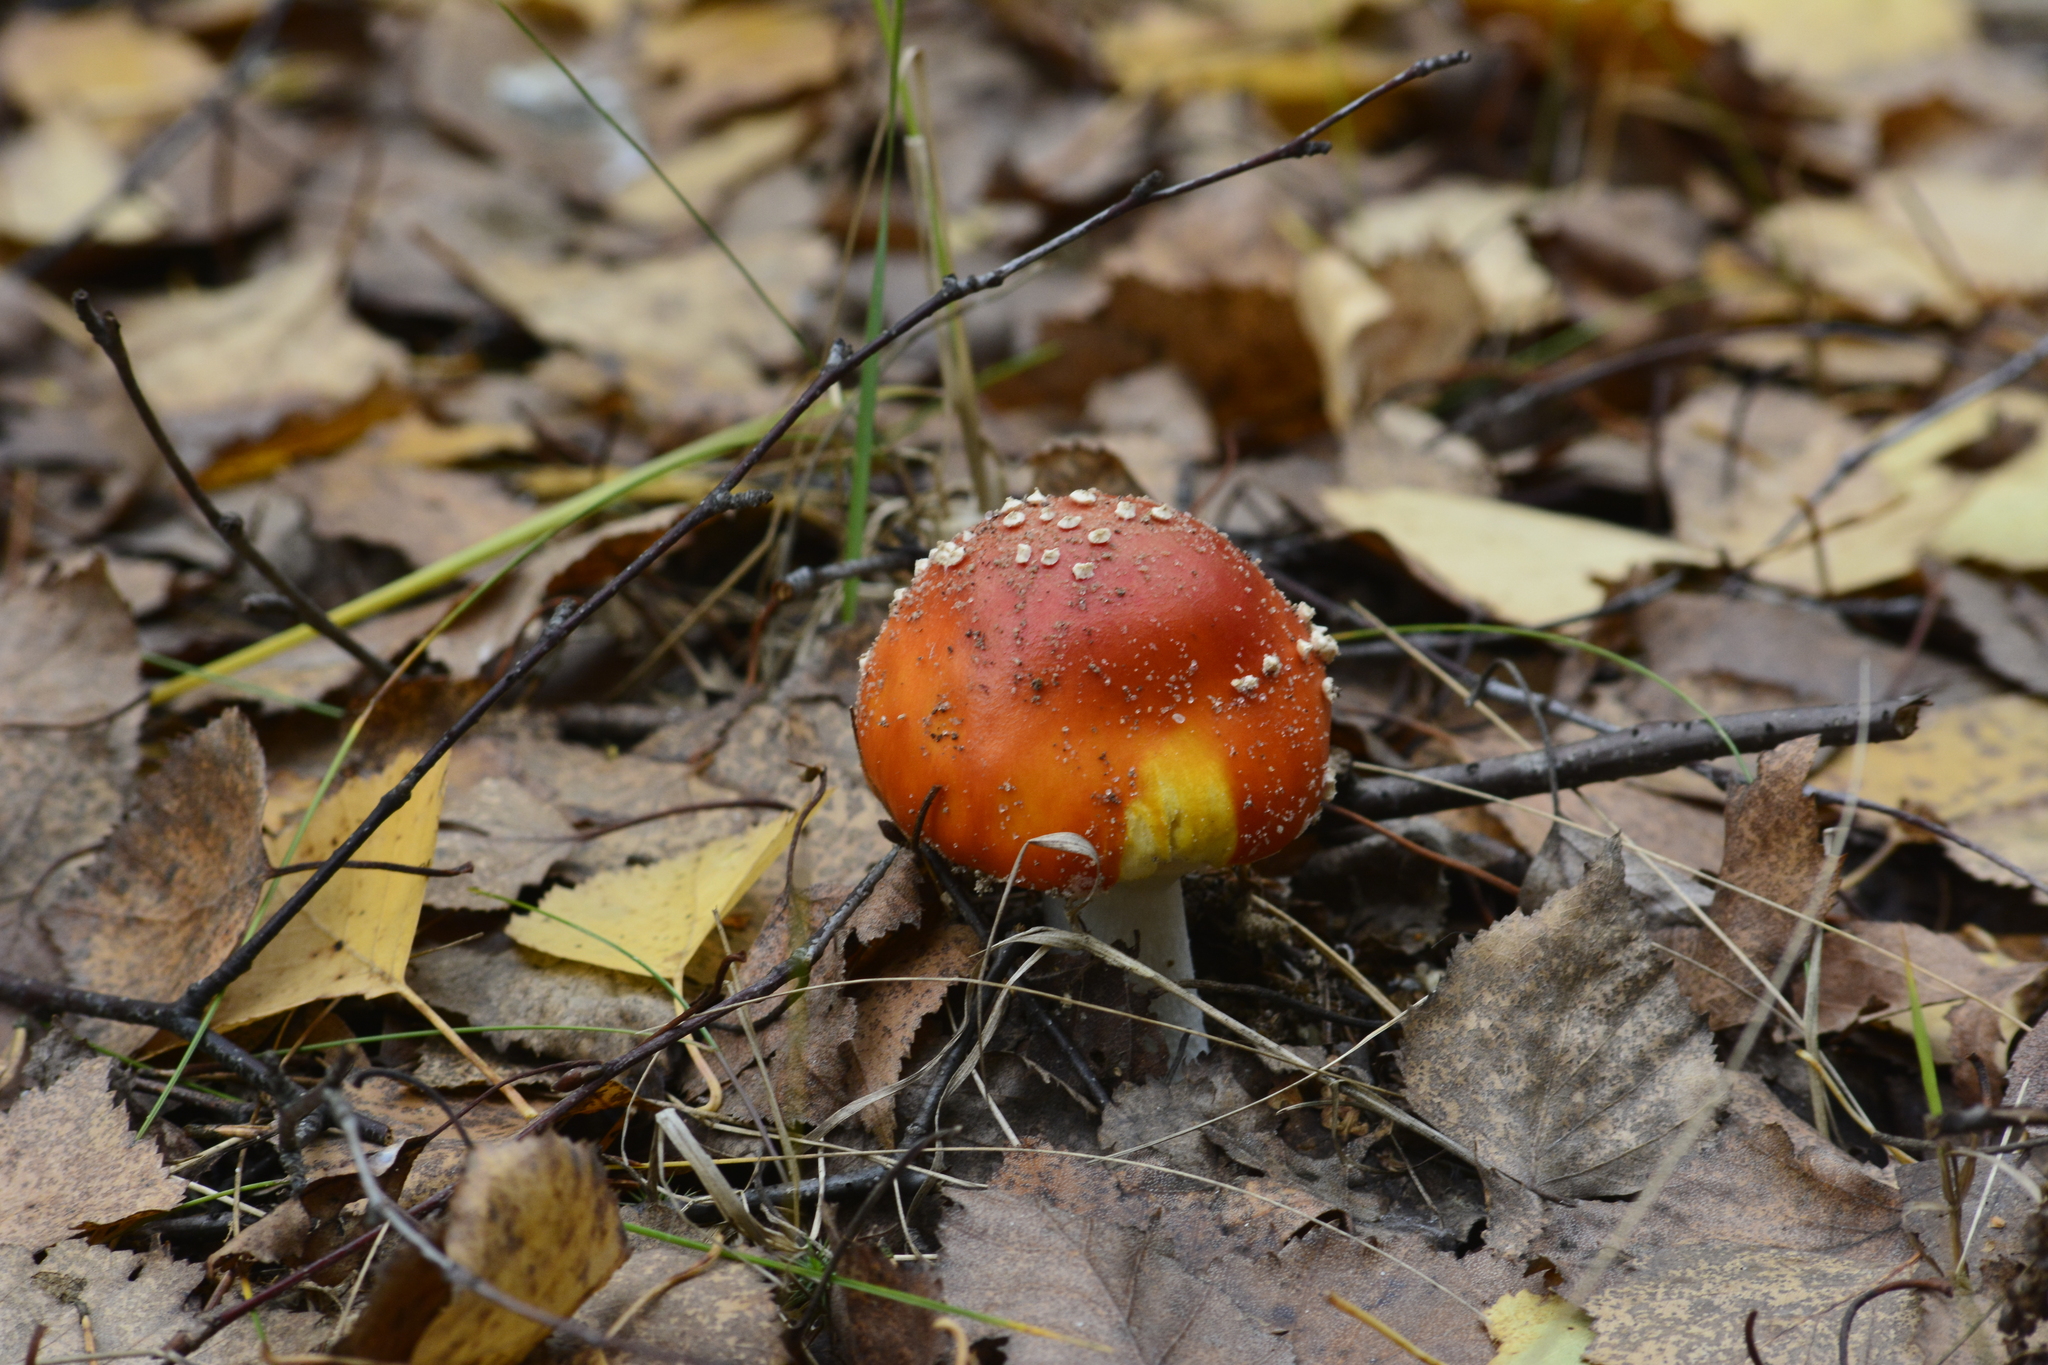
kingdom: Fungi
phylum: Basidiomycota
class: Agaricomycetes
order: Agaricales
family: Amanitaceae
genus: Amanita
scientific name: Amanita muscaria
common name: Fly agaric
